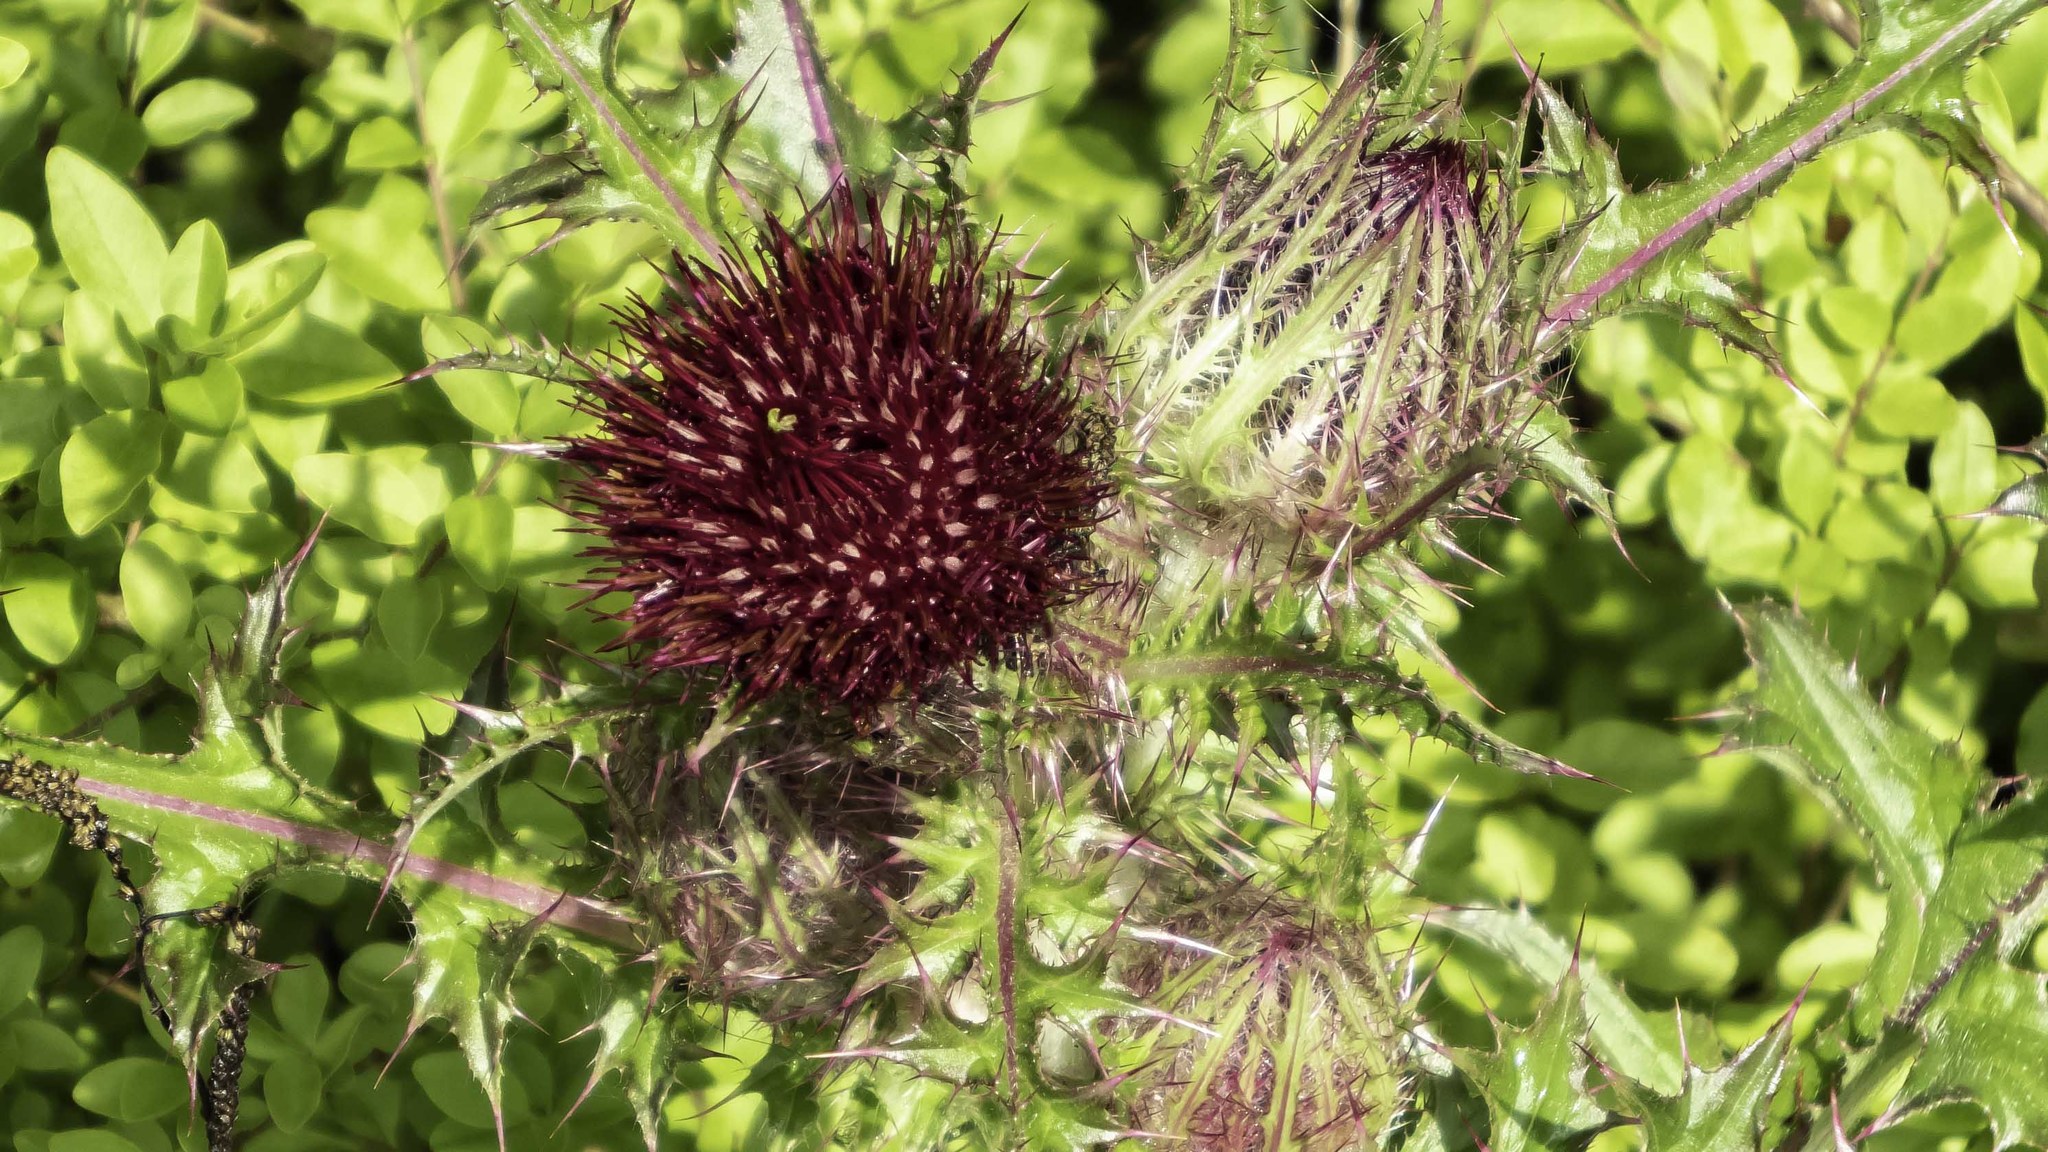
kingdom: Plantae
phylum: Tracheophyta
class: Magnoliopsida
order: Asterales
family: Asteraceae
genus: Cirsium
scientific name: Cirsium horridulum
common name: Bristly thistle
